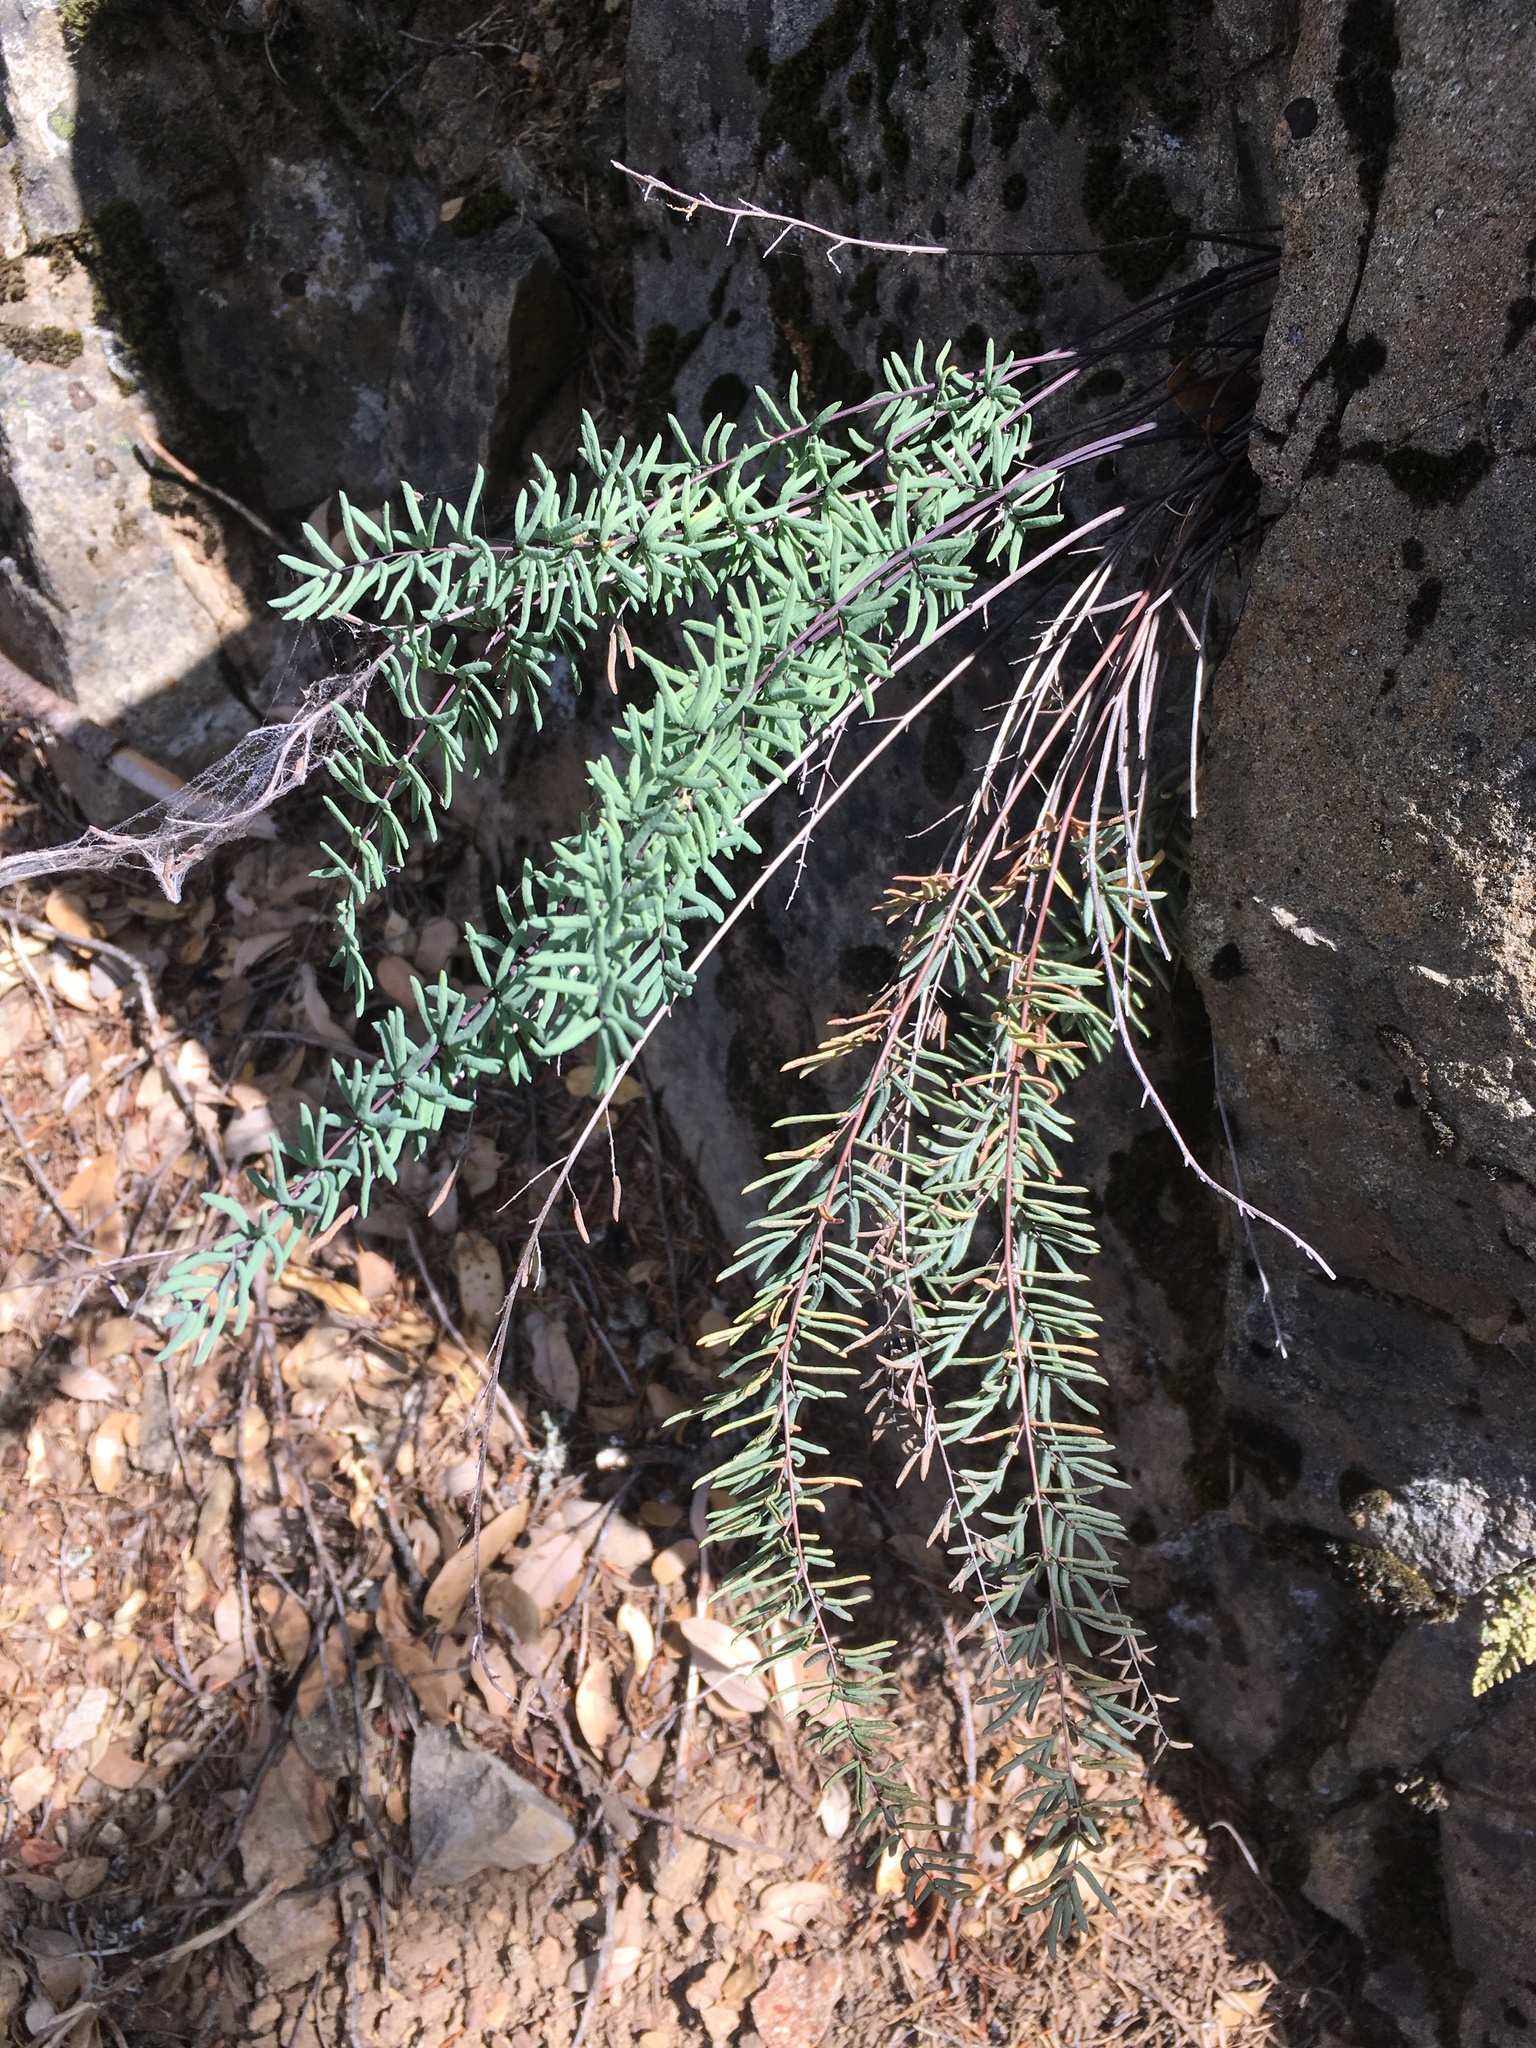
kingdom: Plantae
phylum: Tracheophyta
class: Polypodiopsida
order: Polypodiales
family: Pteridaceae
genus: Pellaea
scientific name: Pellaea brachyptera
